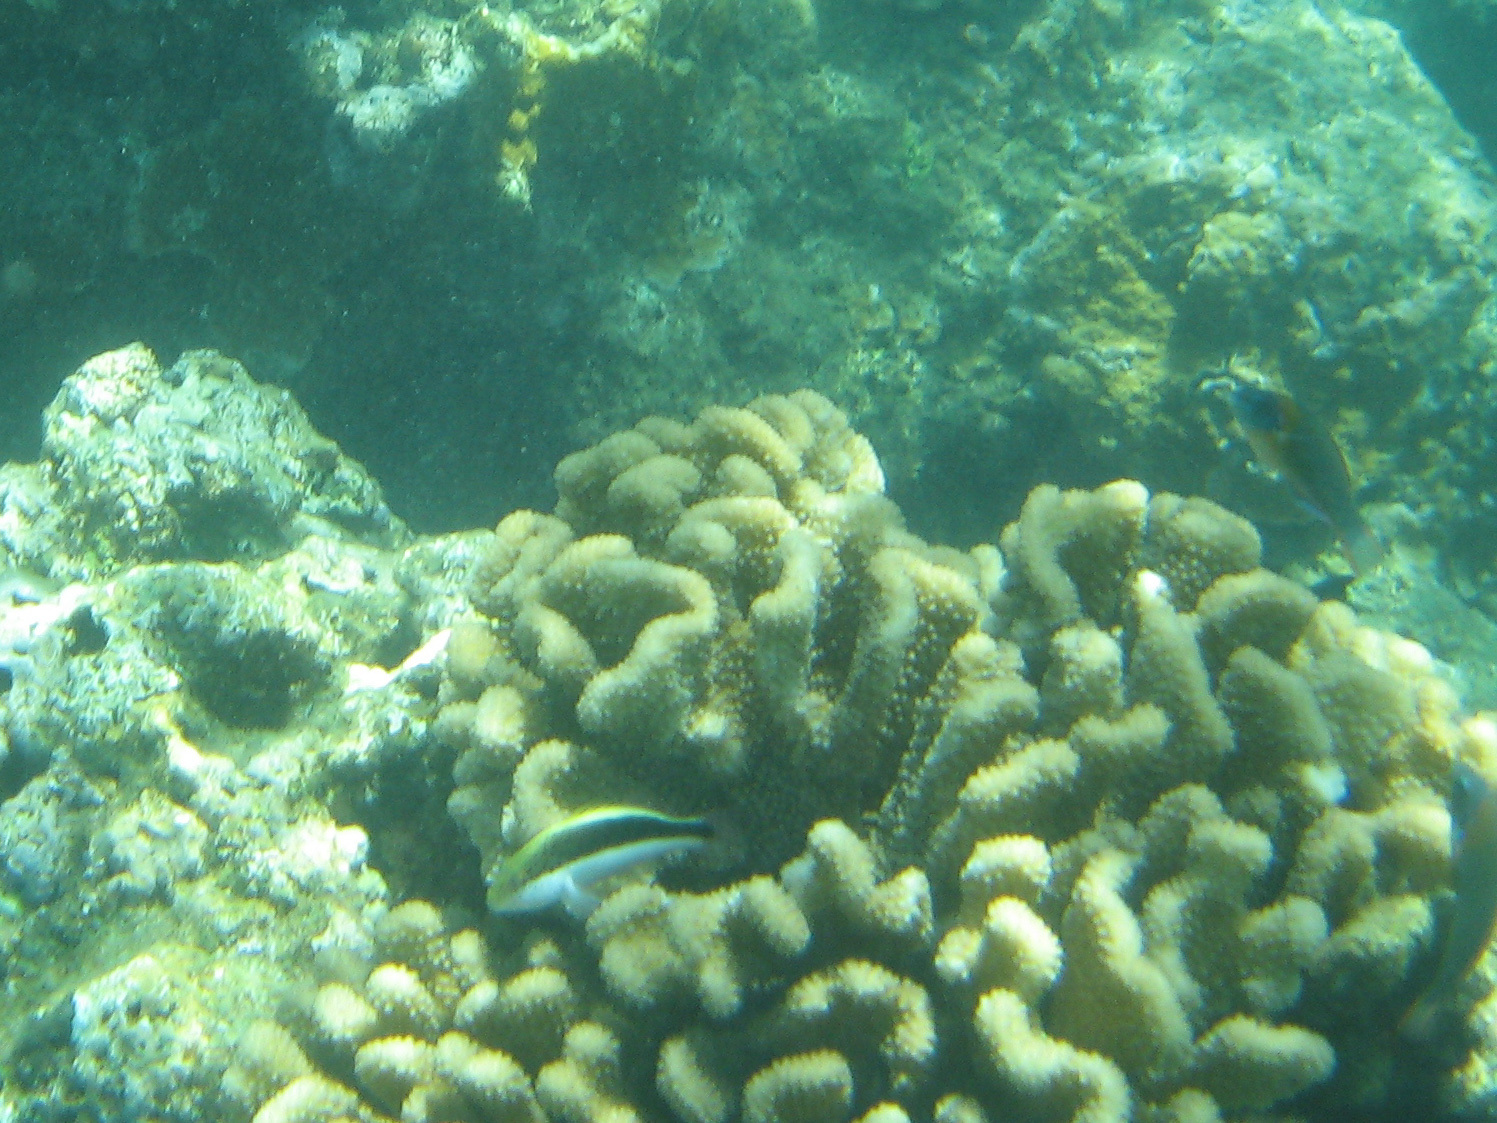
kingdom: Animalia
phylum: Chordata
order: Perciformes
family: Cirrhitidae
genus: Paracirrhites
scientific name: Paracirrhites forsteri
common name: Freckled hawkfish
